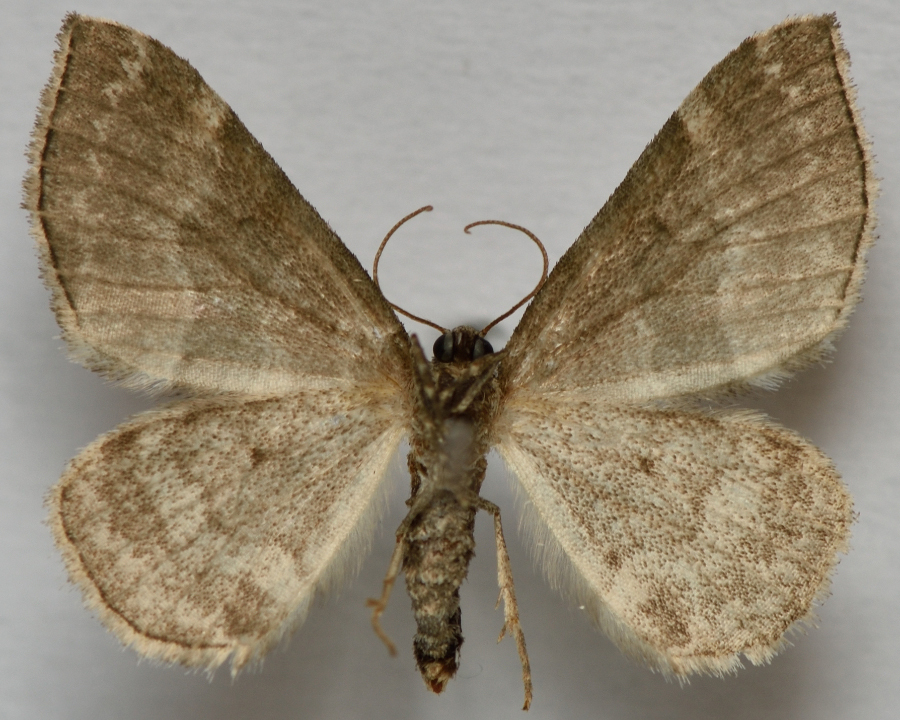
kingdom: Animalia
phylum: Arthropoda
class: Insecta
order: Lepidoptera
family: Geometridae
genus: Perizoma
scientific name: Perizoma bifaciata
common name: Barred rivulet
